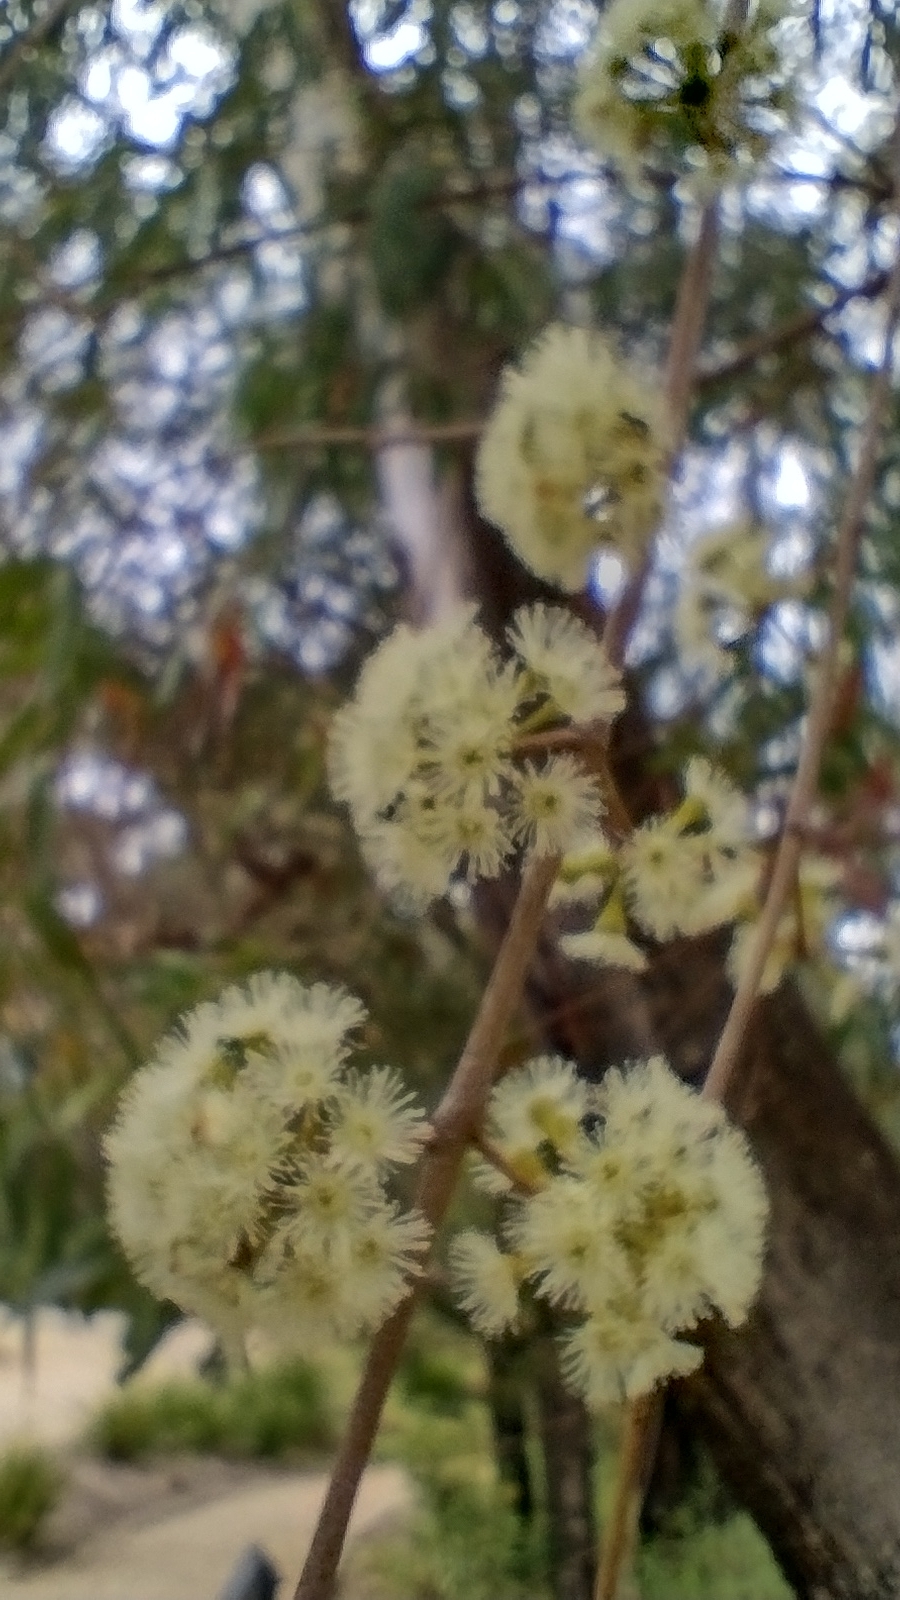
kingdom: Plantae
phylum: Tracheophyta
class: Magnoliopsida
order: Myrtales
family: Myrtaceae
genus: Eucalyptus
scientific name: Eucalyptus elata
